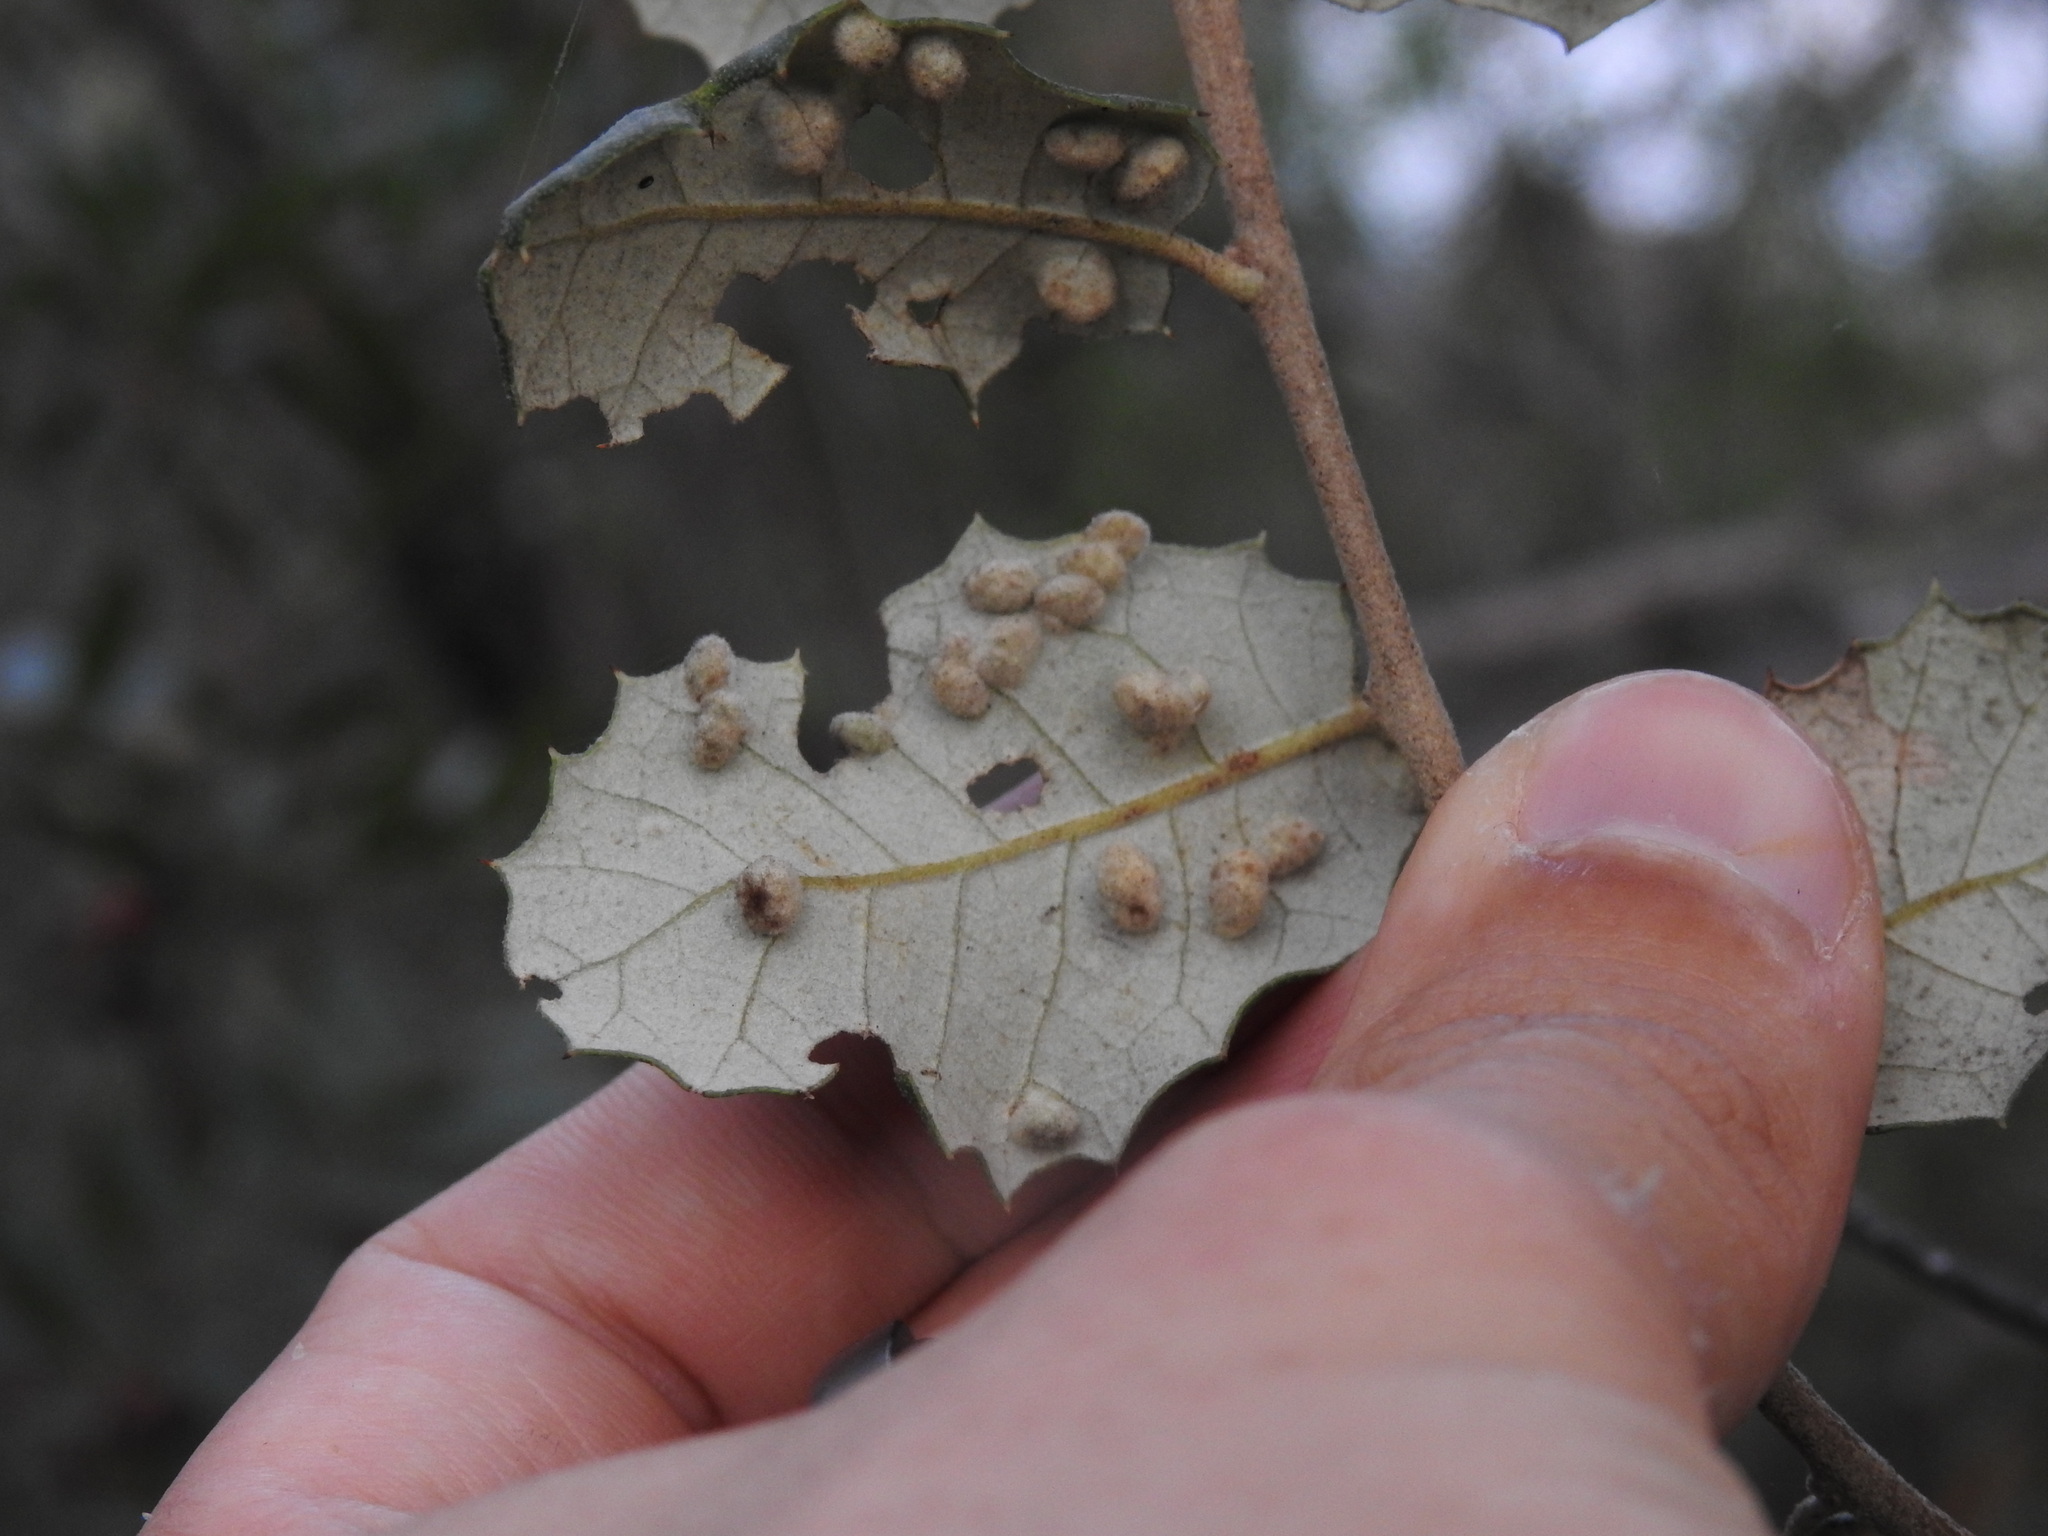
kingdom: Animalia
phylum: Arthropoda
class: Insecta
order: Diptera
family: Cecidomyiidae
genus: Dryomyia
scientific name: Dryomyia lichtensteinii
